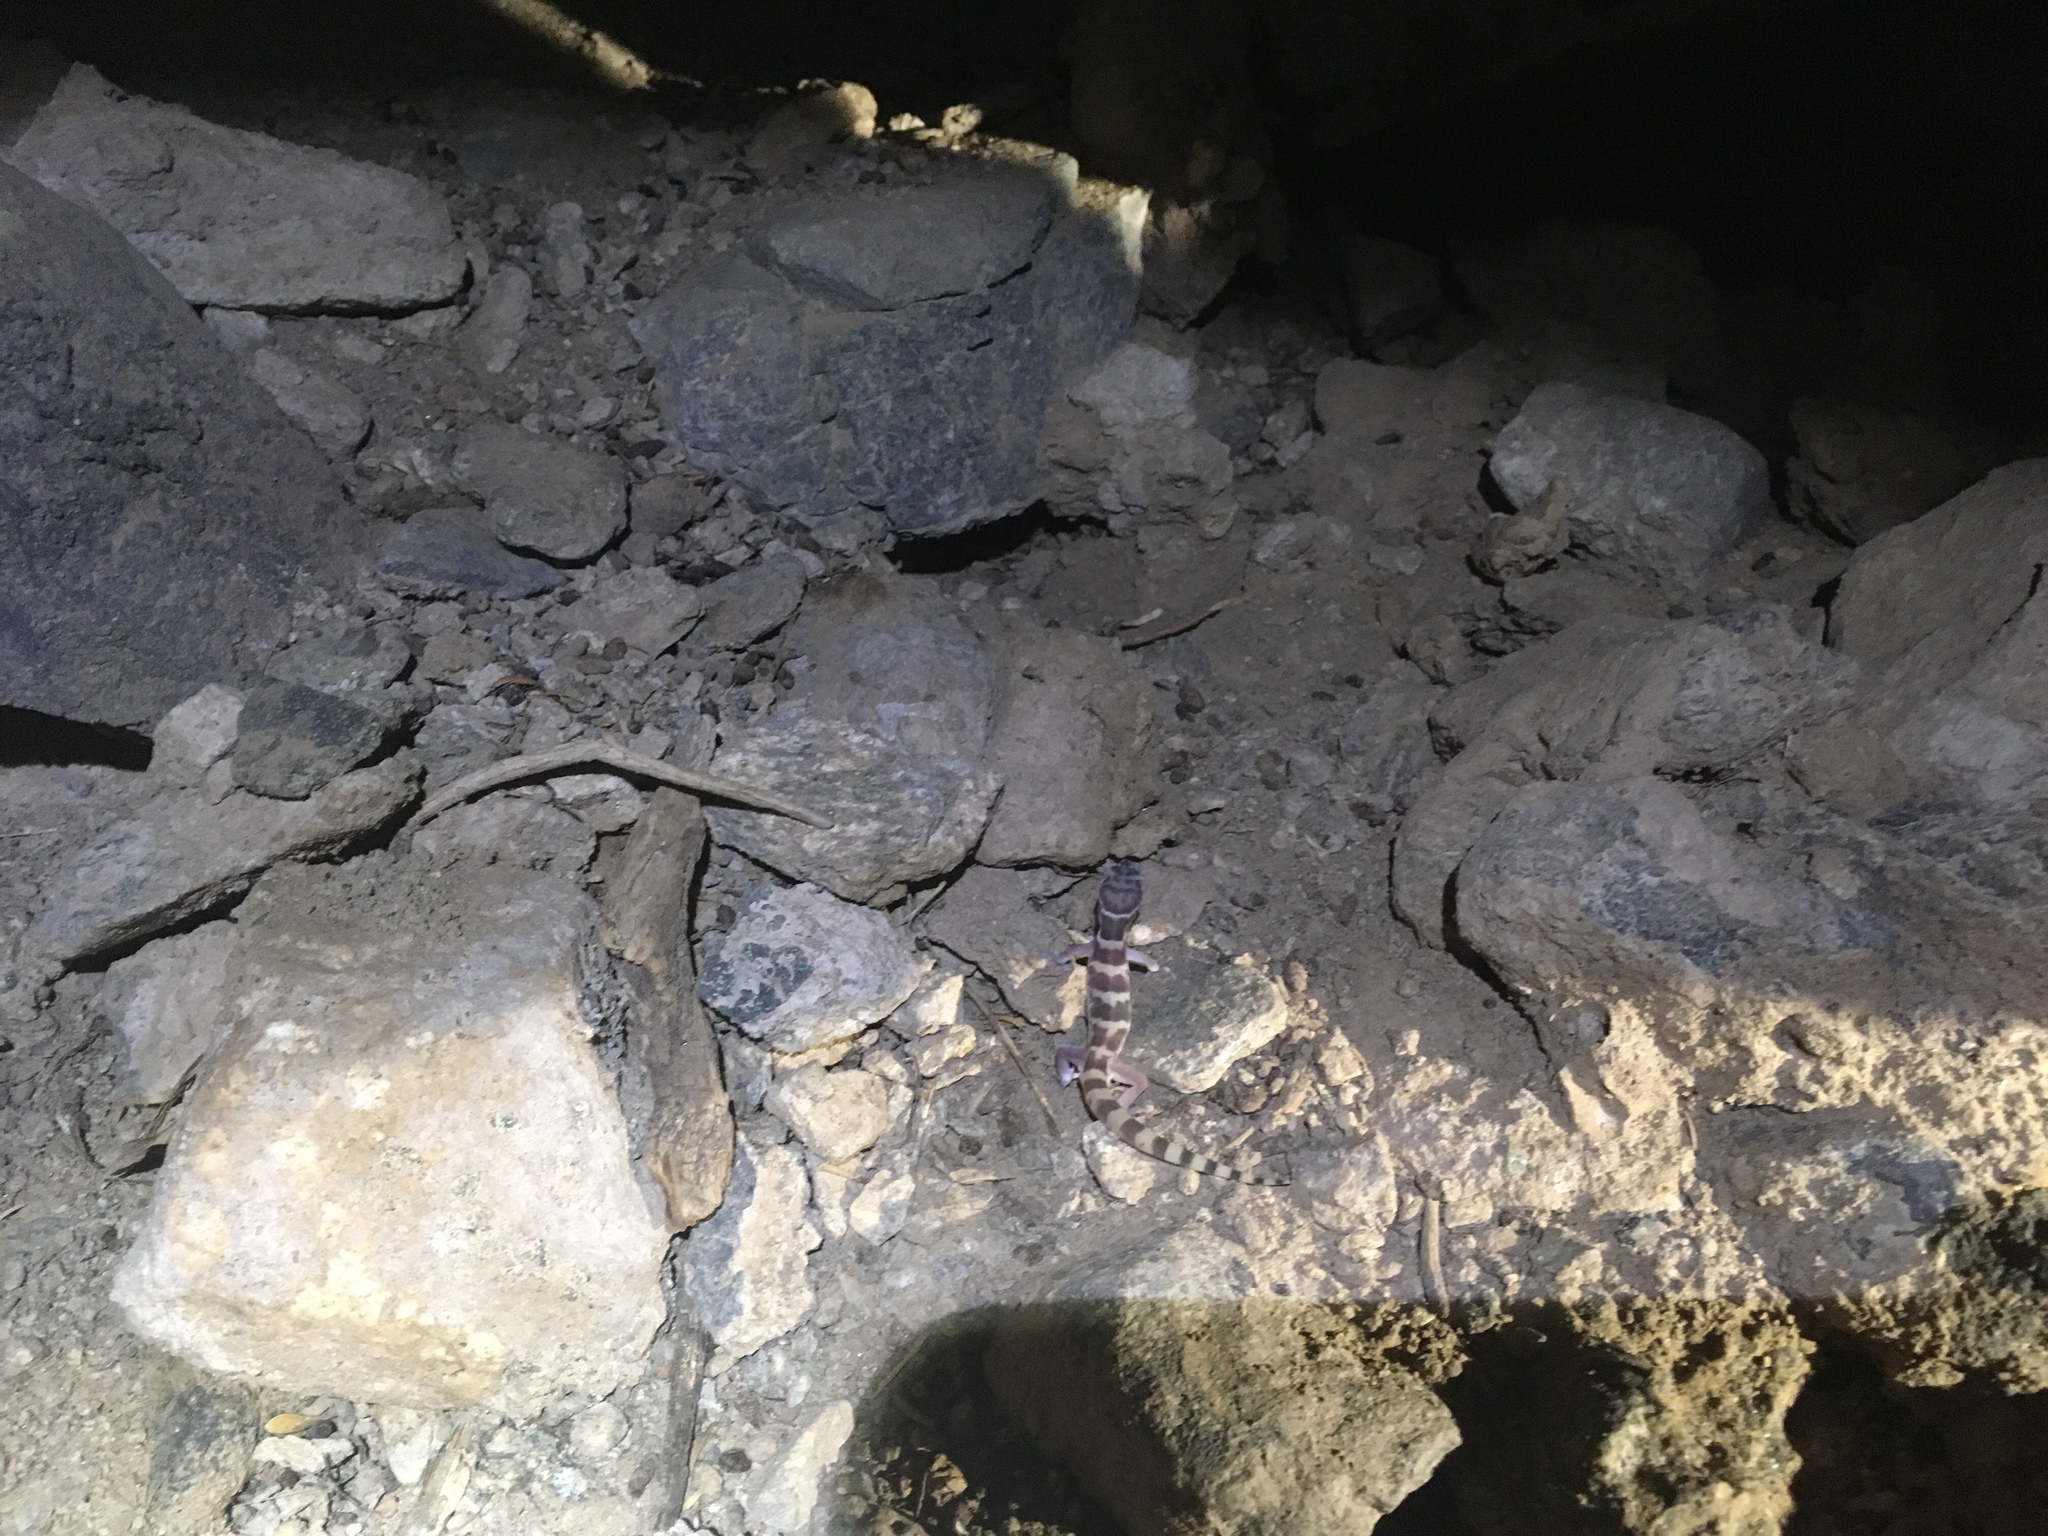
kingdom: Animalia
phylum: Chordata
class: Squamata
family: Eublepharidae
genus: Coleonyx
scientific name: Coleonyx variegatus
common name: Western banded gecko
